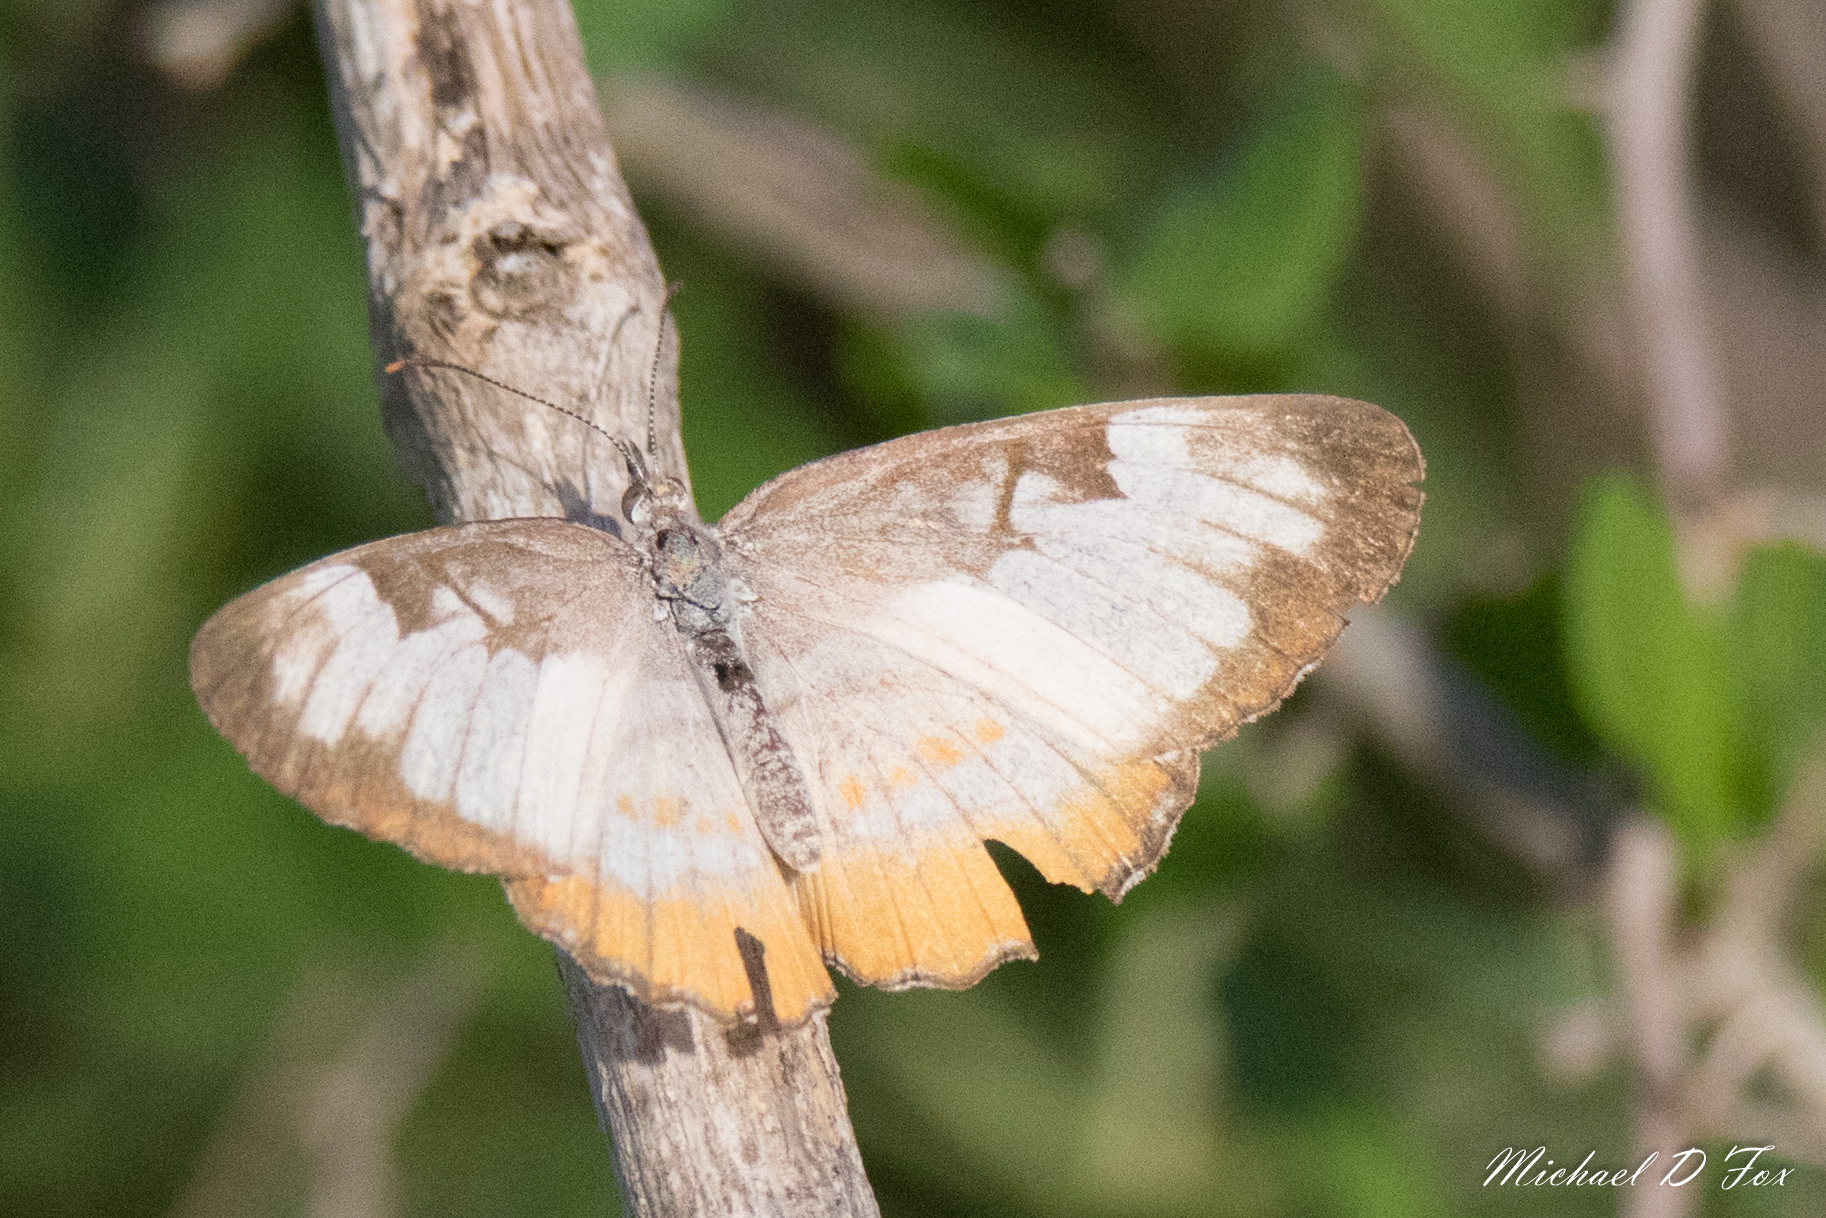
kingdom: Animalia
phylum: Arthropoda
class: Insecta
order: Lepidoptera
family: Nymphalidae
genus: Mestra
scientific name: Mestra amymone
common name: Common mestra
